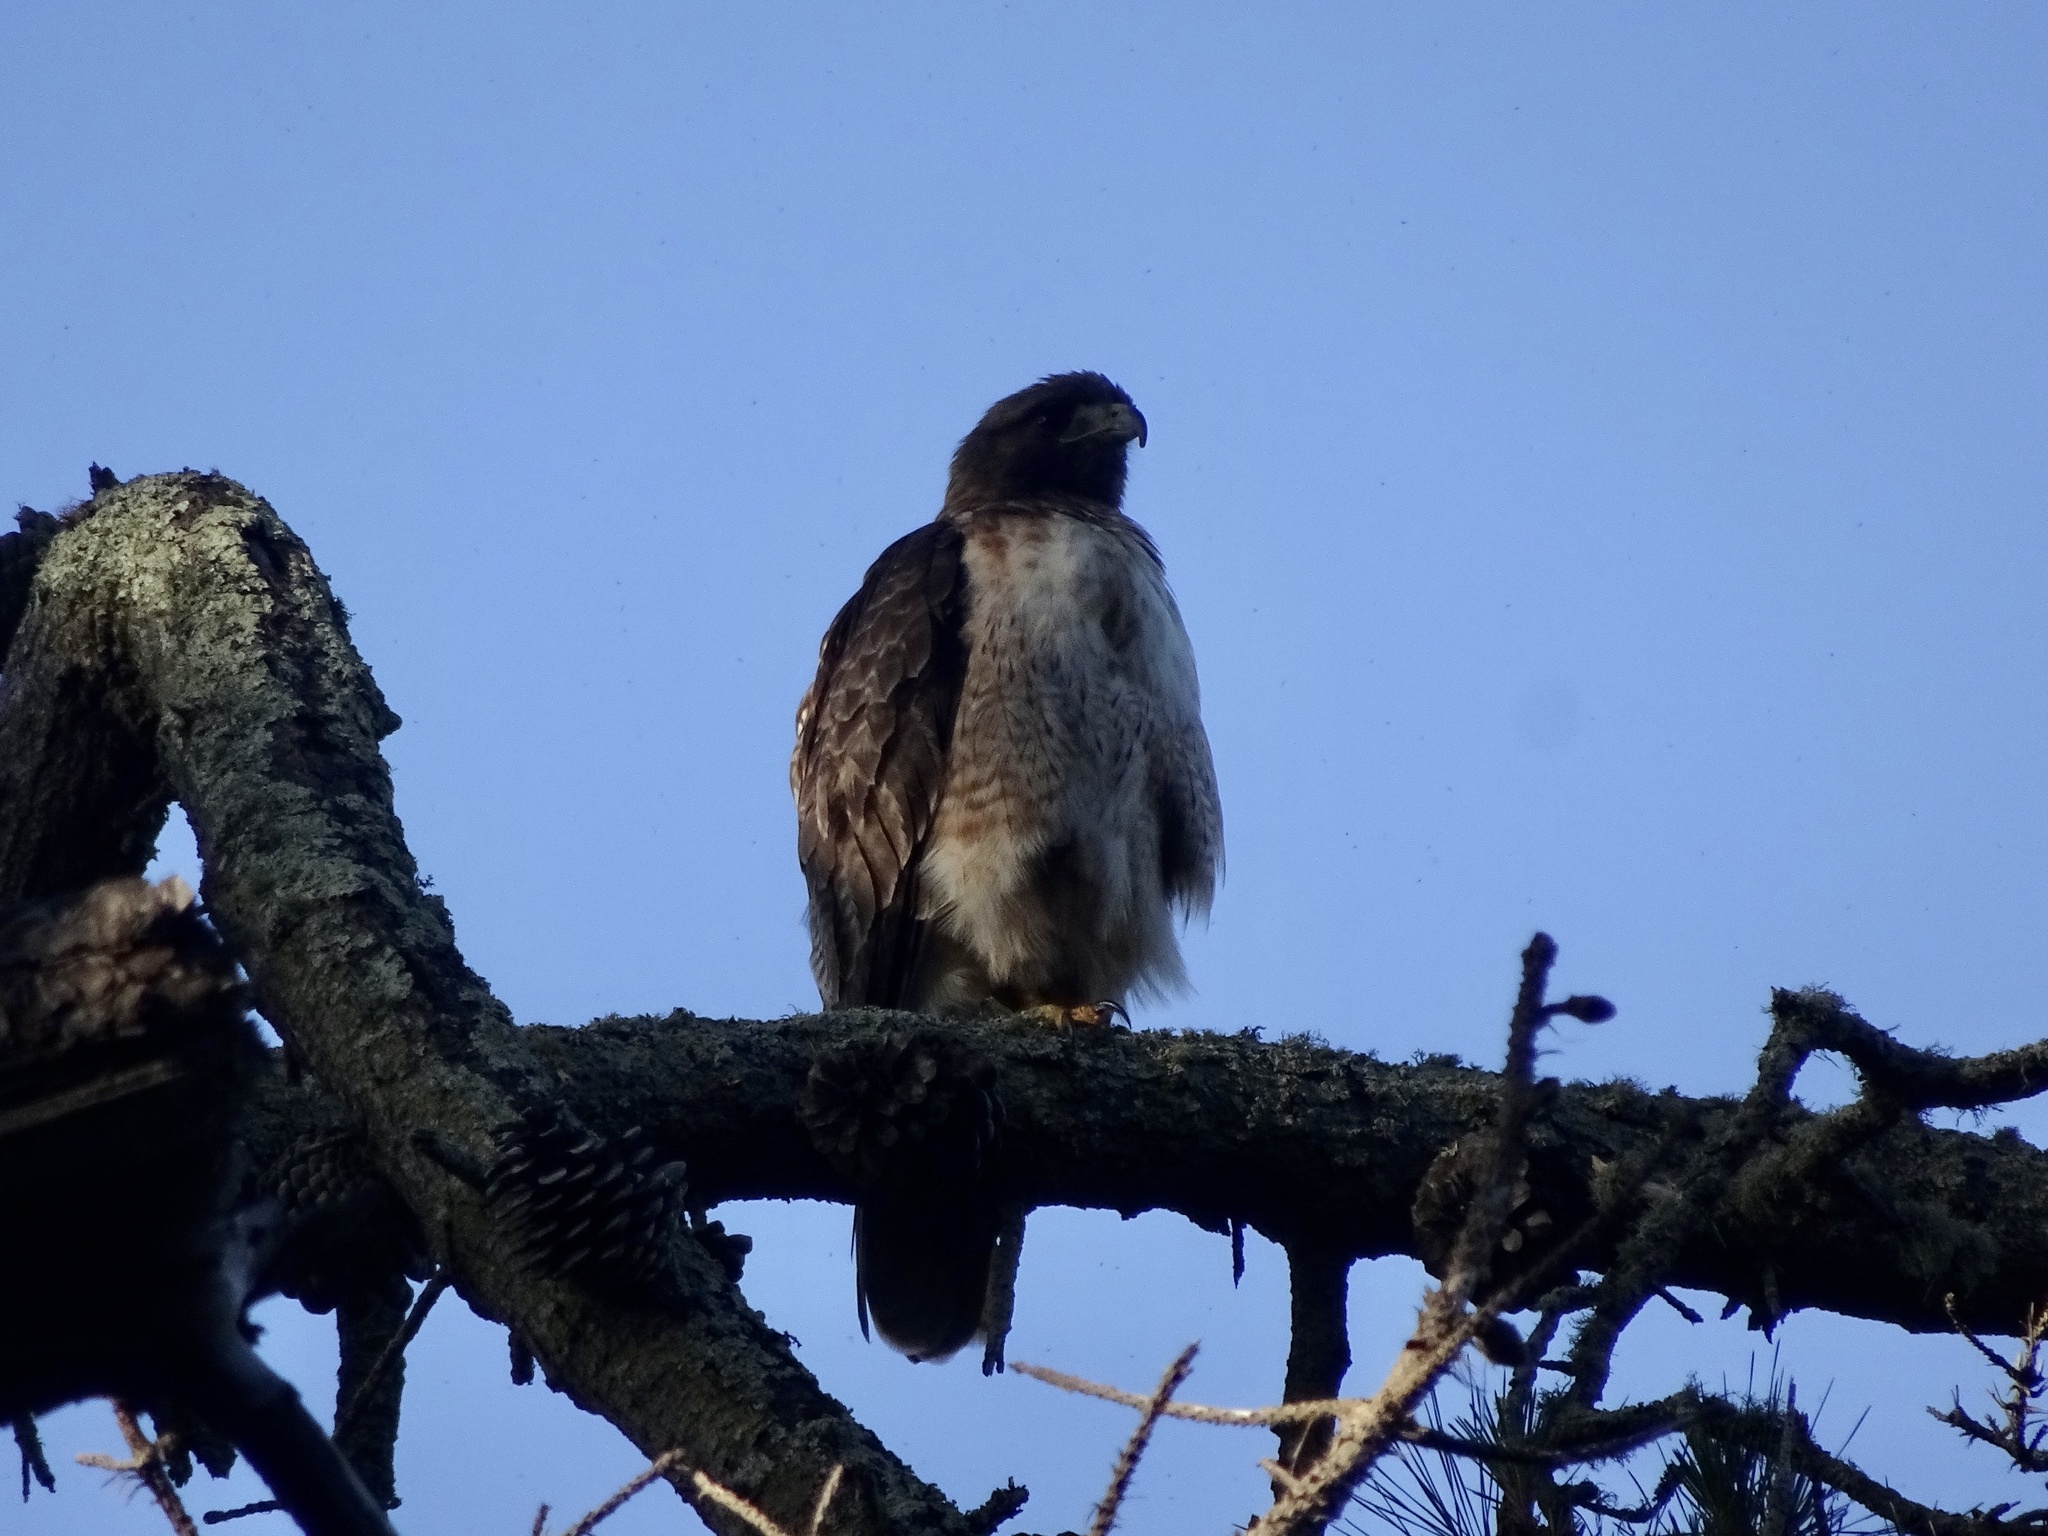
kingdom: Animalia
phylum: Chordata
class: Aves
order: Accipitriformes
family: Accipitridae
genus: Buteo
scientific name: Buteo jamaicensis
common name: Red-tailed hawk
